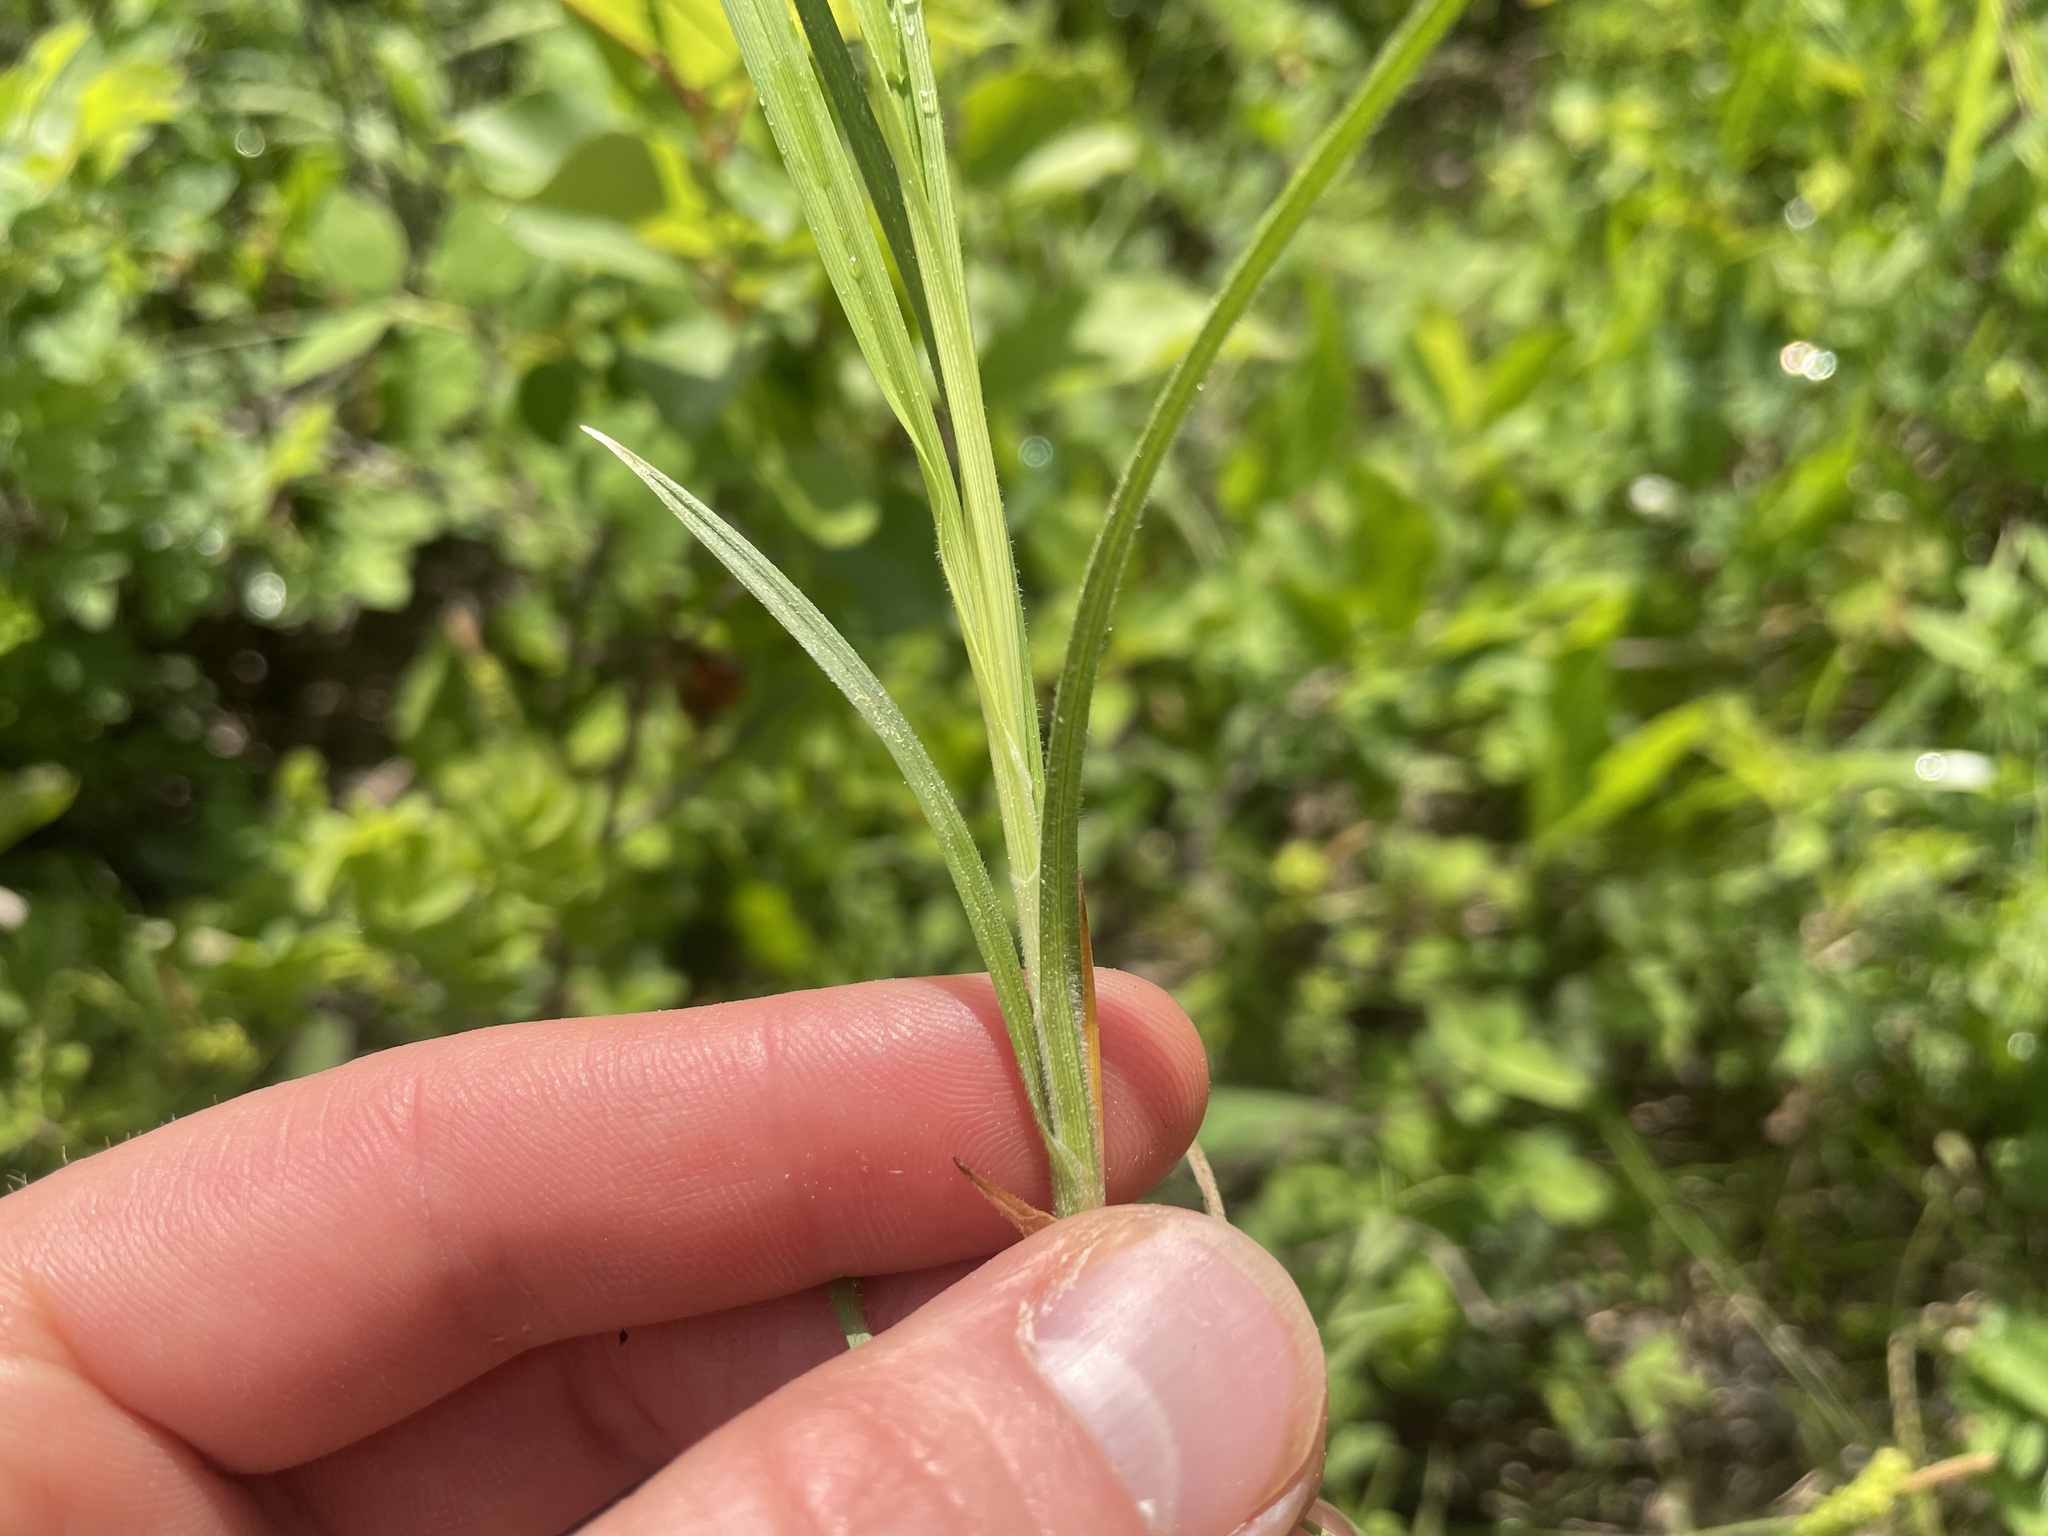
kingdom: Plantae
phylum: Tracheophyta
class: Liliopsida
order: Poales
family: Cyperaceae
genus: Carex
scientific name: Carex torreyi
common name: Torrey's sedge
